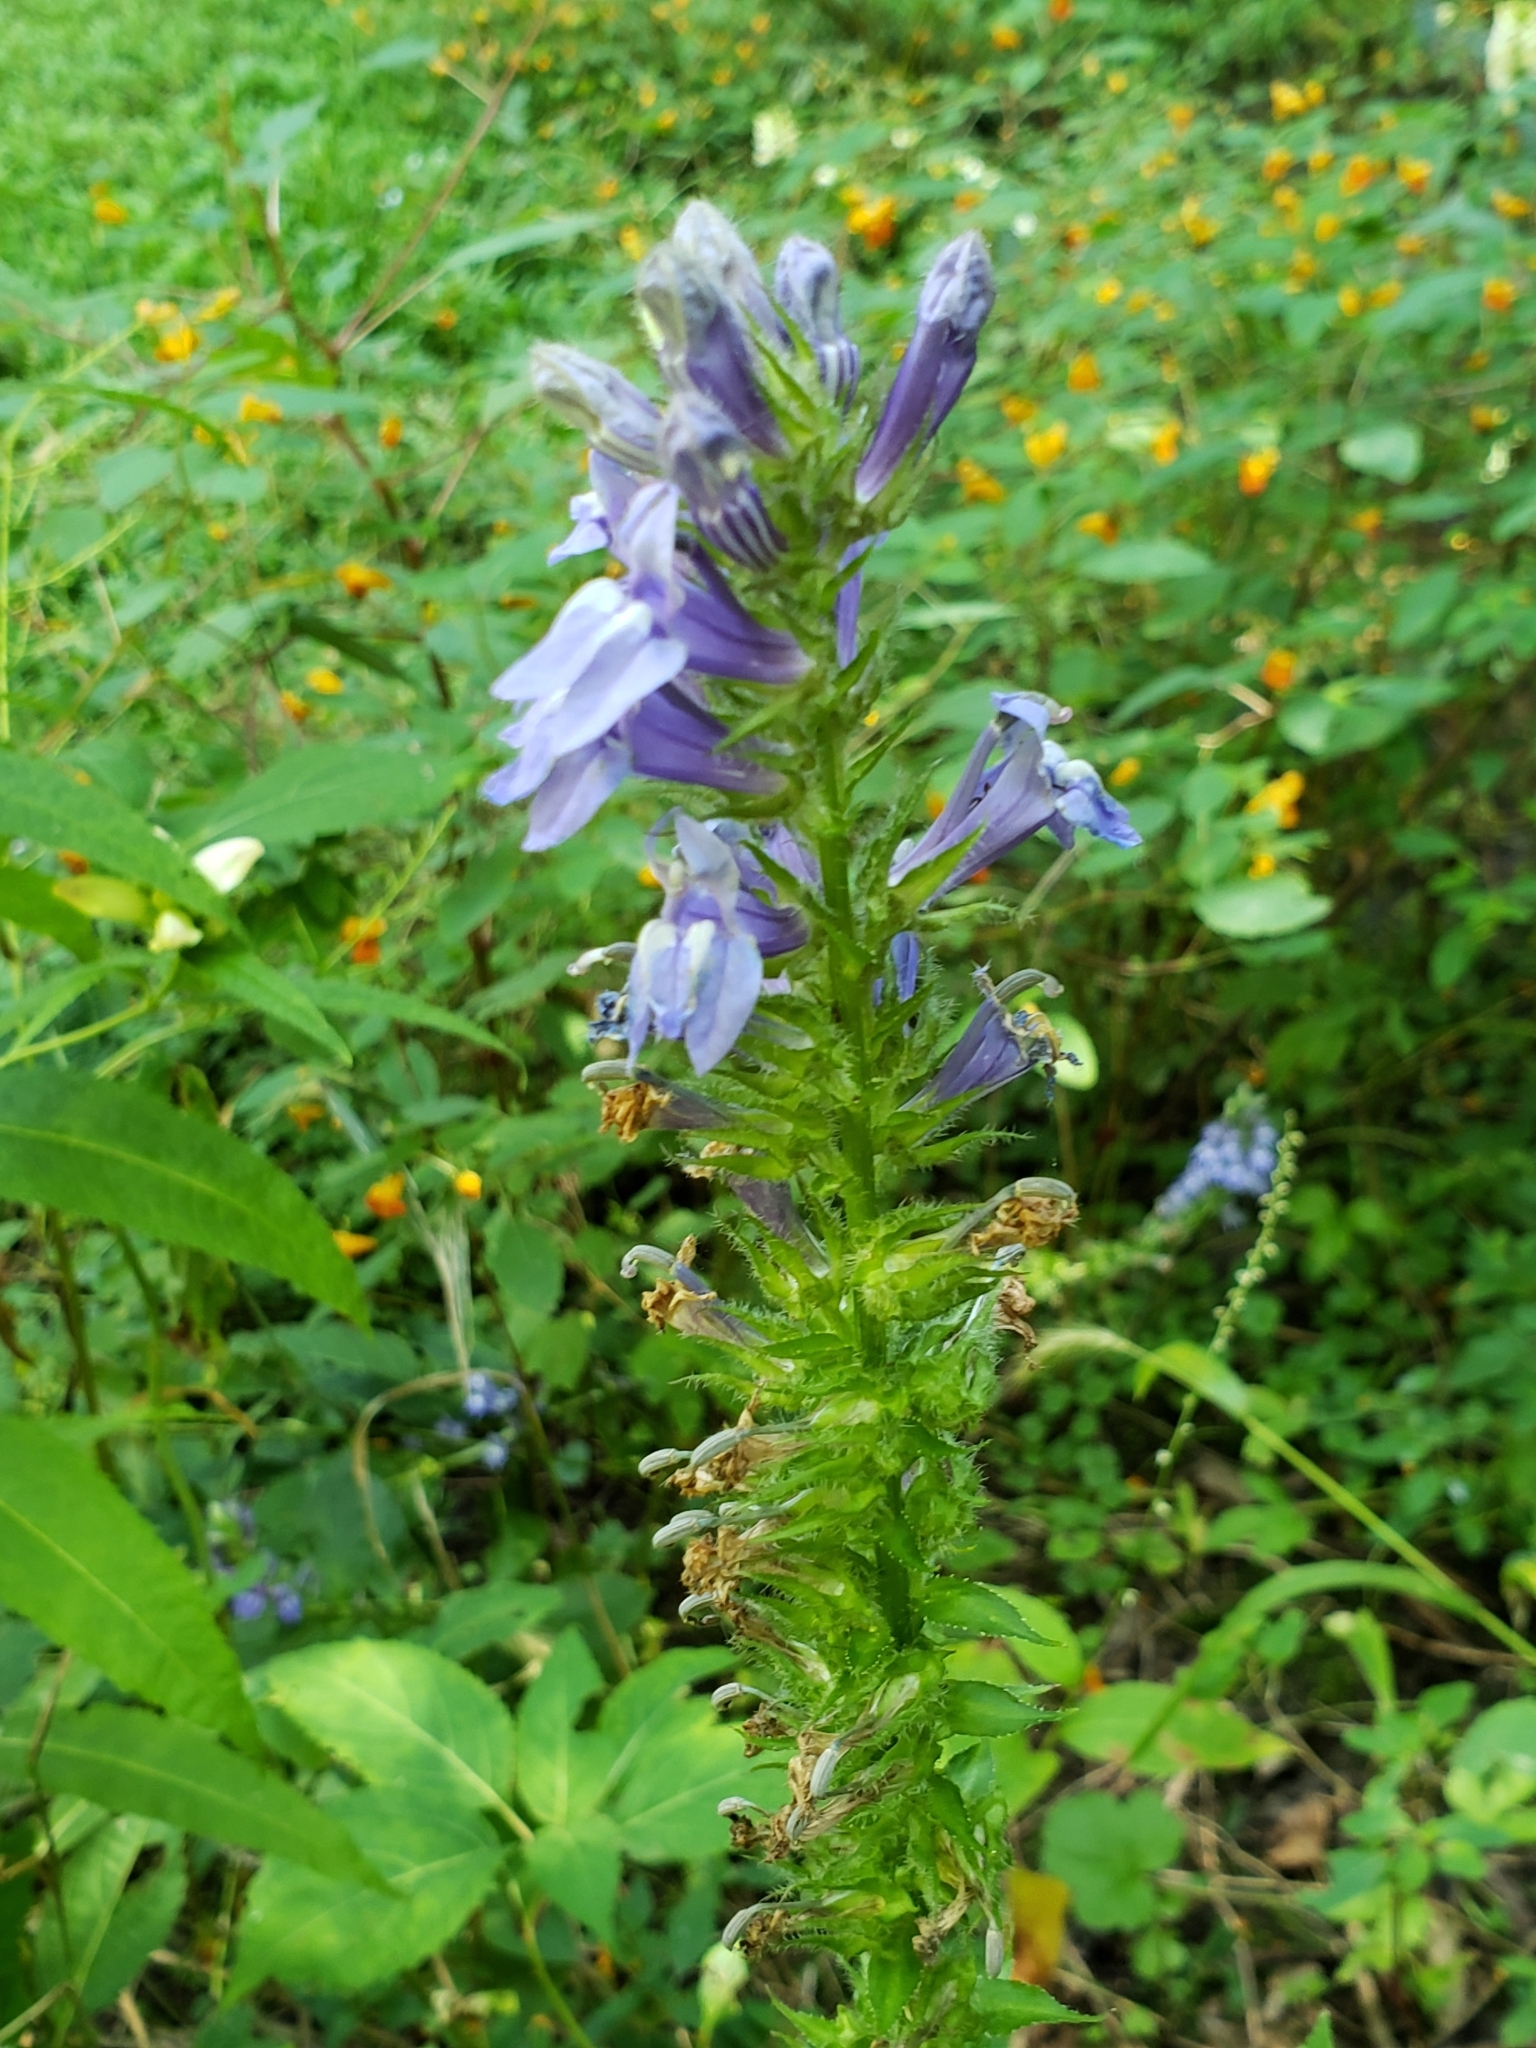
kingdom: Plantae
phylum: Tracheophyta
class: Magnoliopsida
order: Asterales
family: Campanulaceae
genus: Lobelia
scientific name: Lobelia siphilitica
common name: Great lobelia
